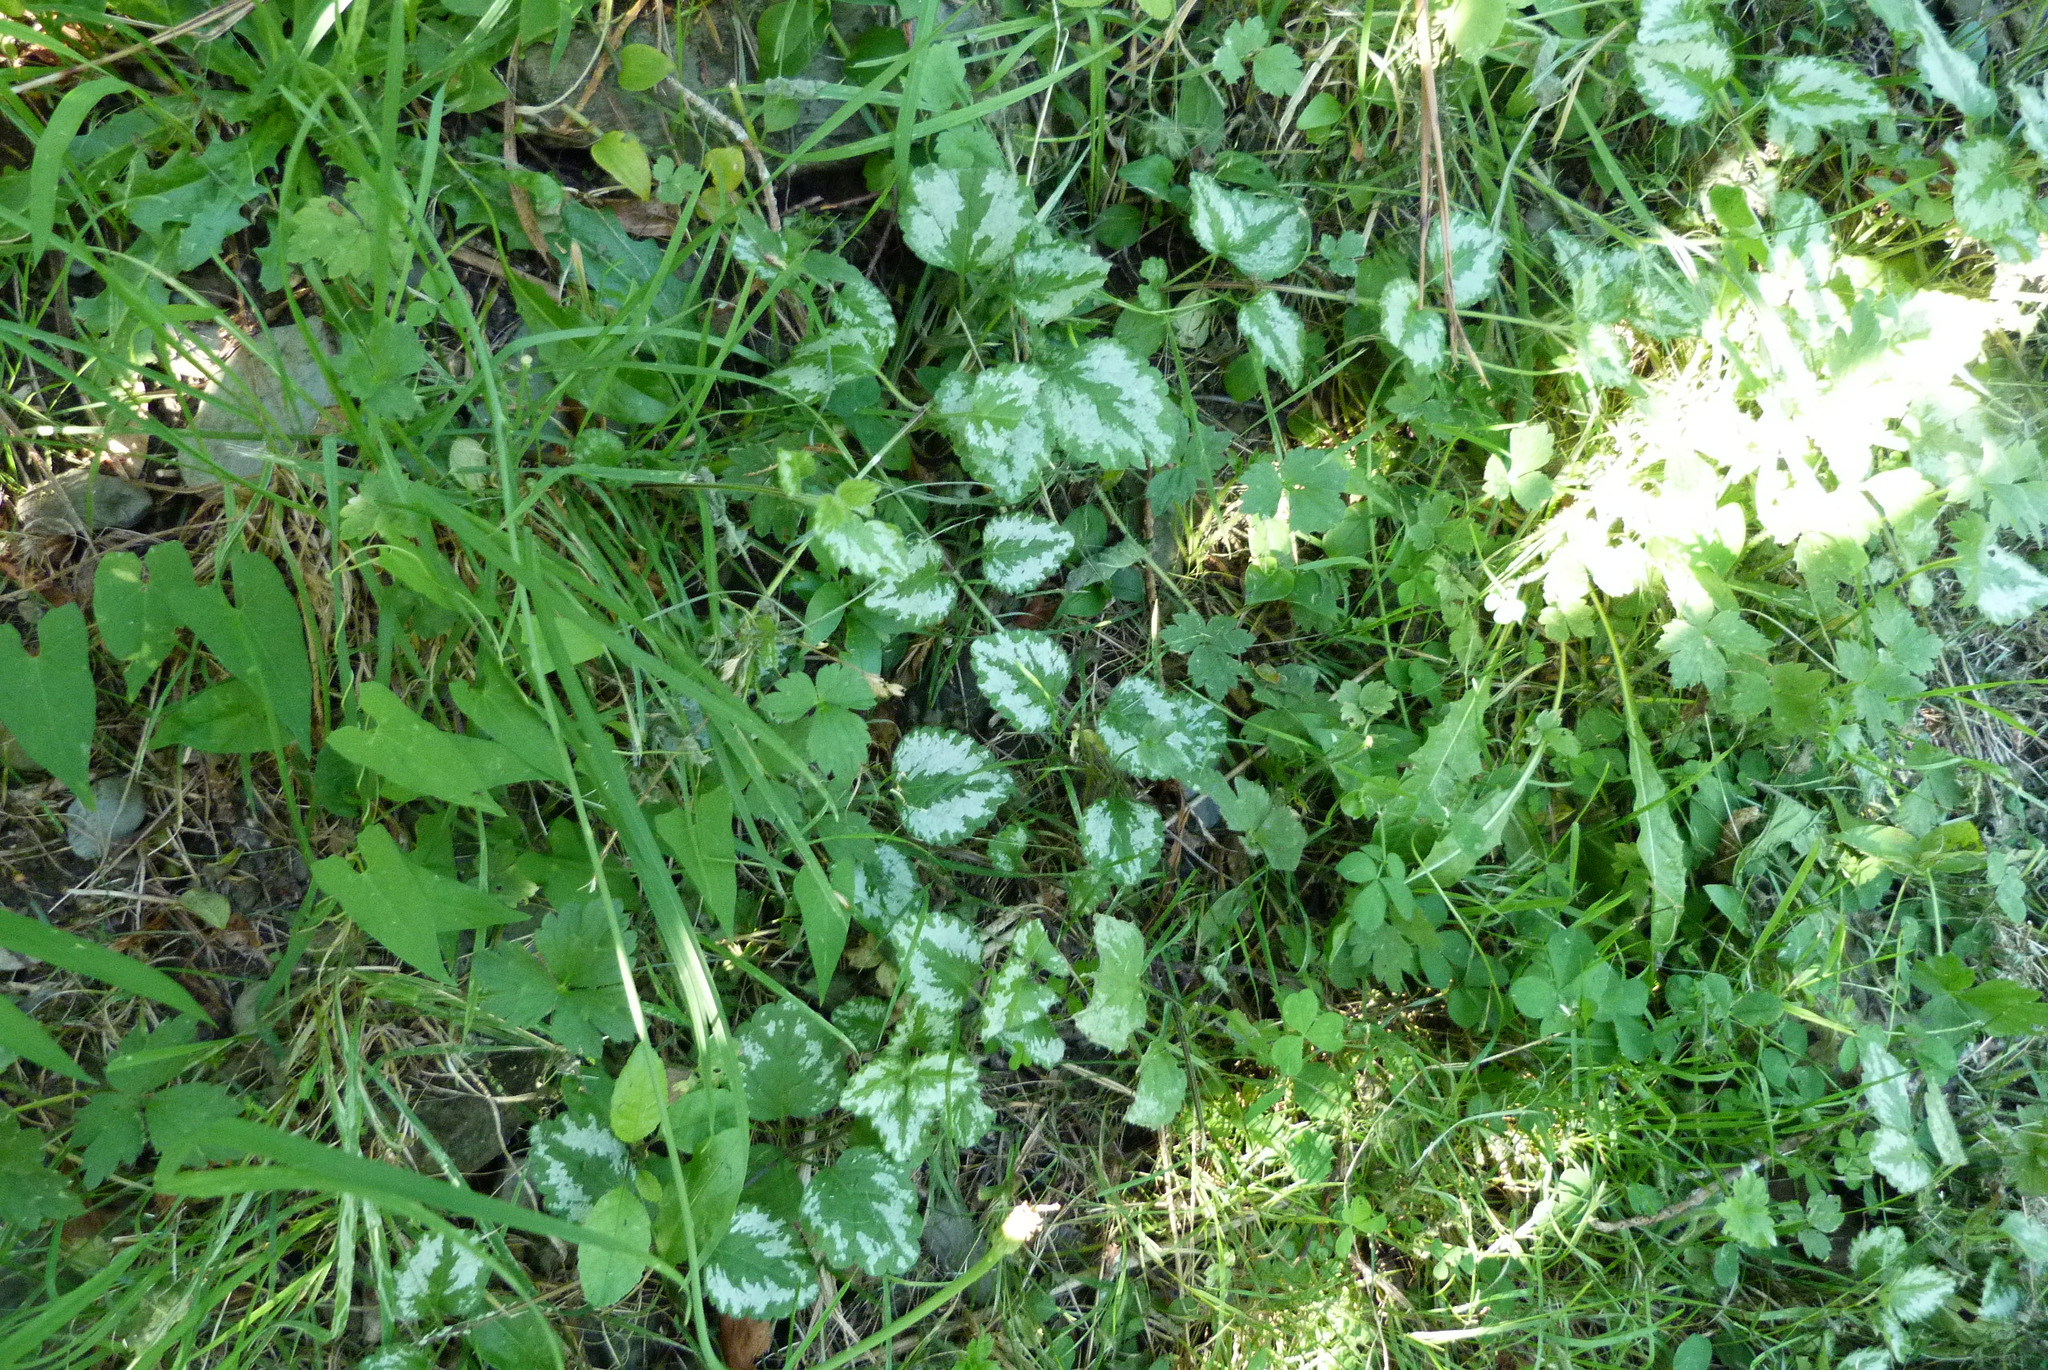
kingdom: Plantae
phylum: Tracheophyta
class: Magnoliopsida
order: Lamiales
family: Lamiaceae
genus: Lamium
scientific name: Lamium galeobdolon
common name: Yellow archangel
